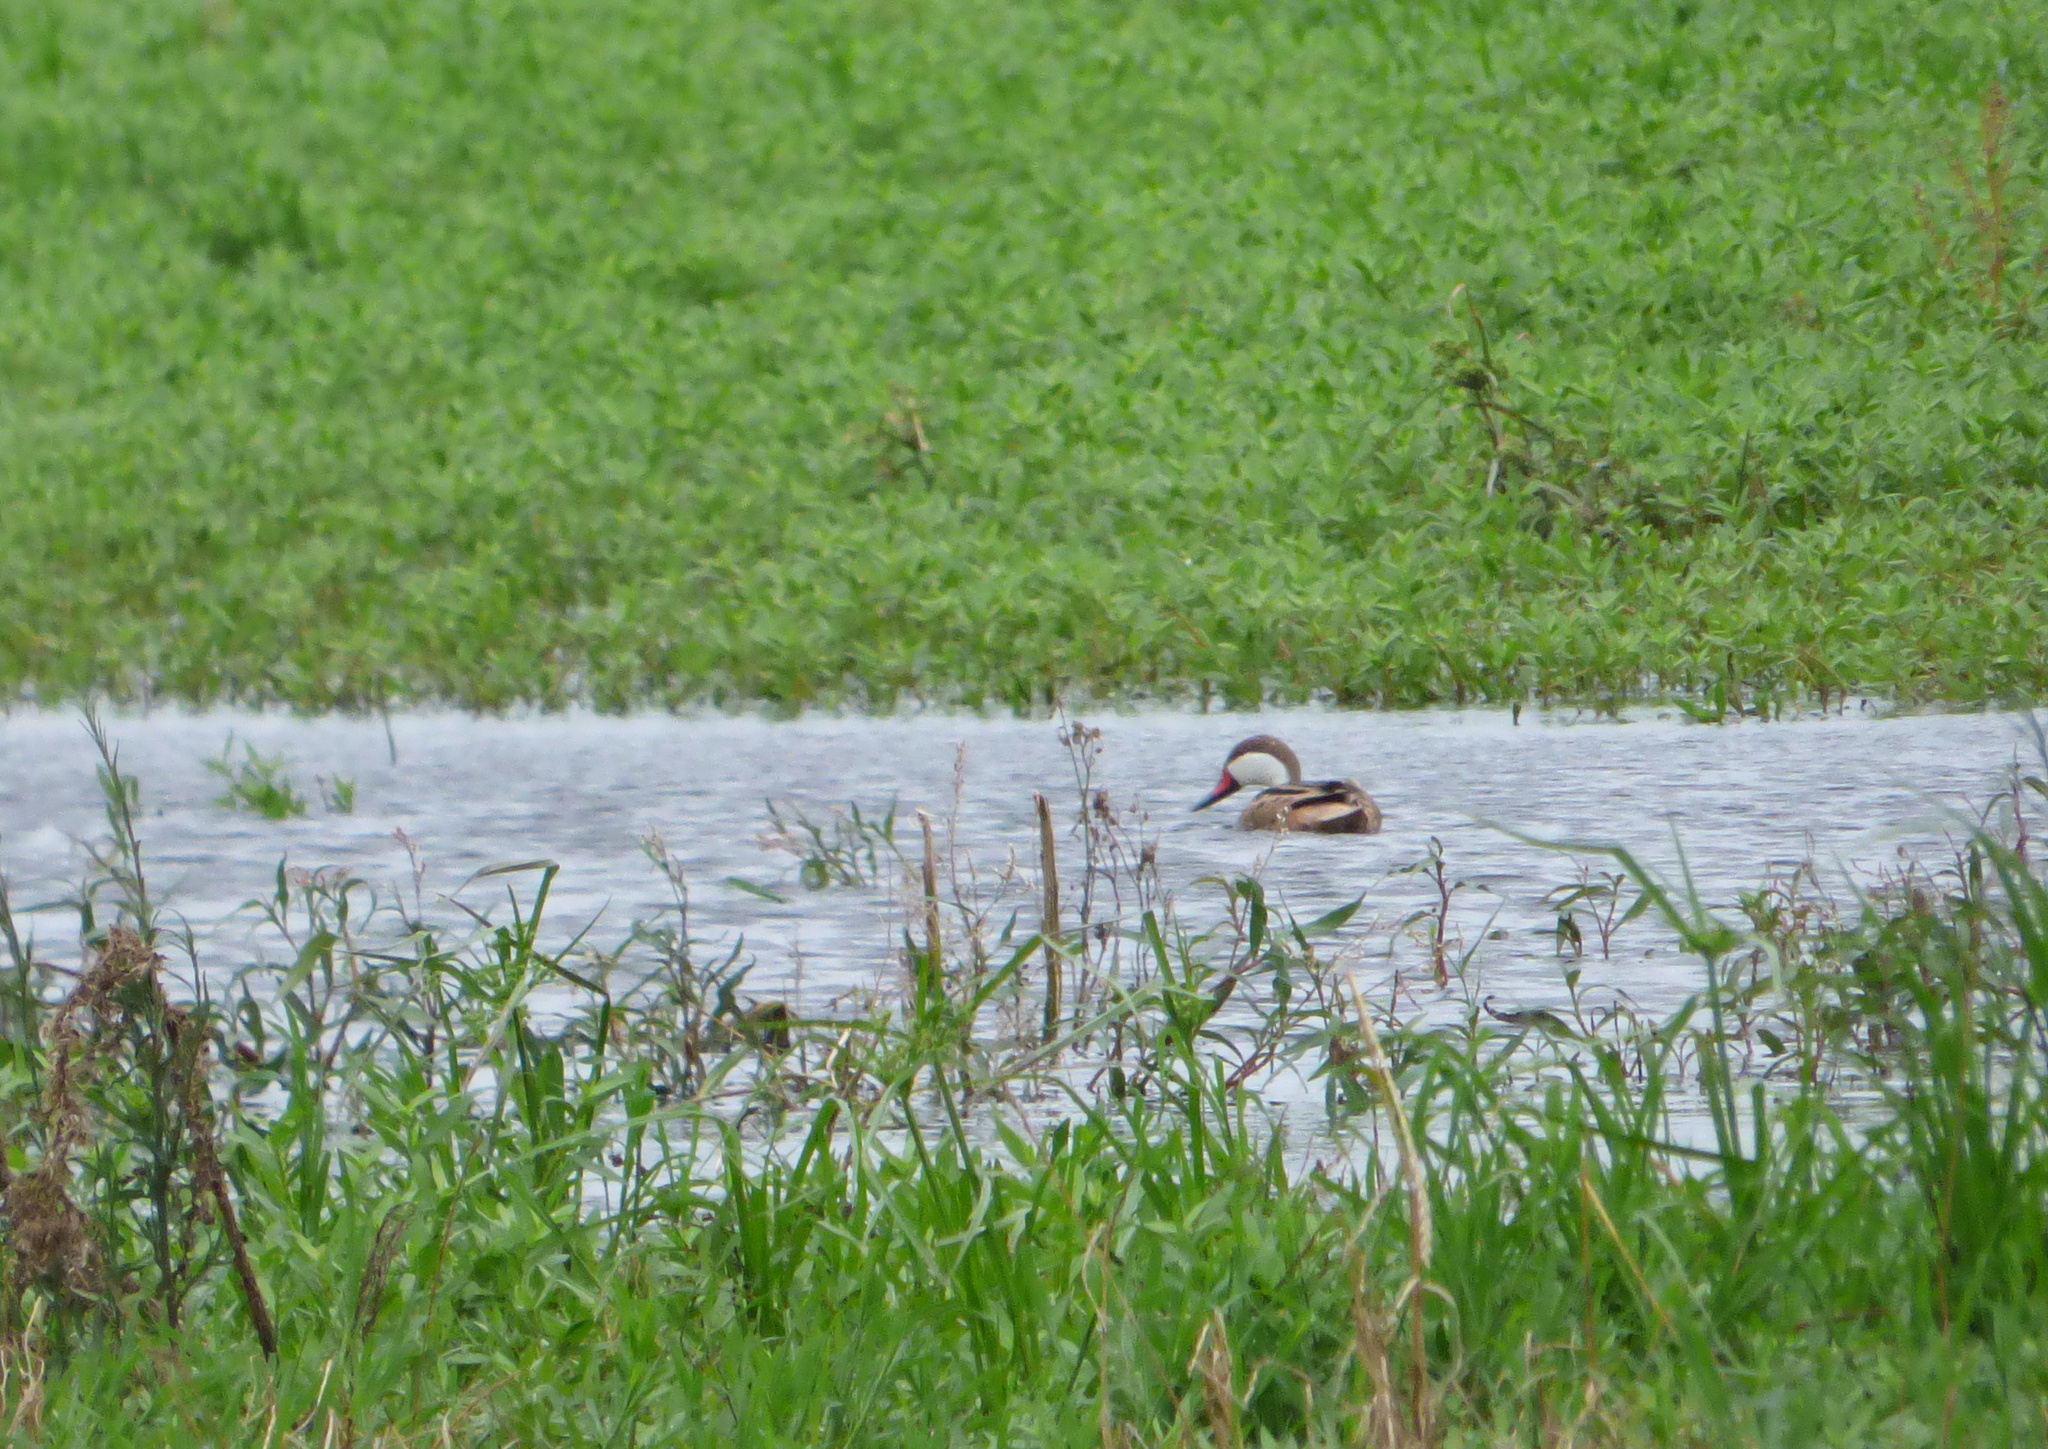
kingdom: Animalia
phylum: Chordata
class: Aves
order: Anseriformes
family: Anatidae
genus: Anas
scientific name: Anas bahamensis
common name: White-cheeked pintail
